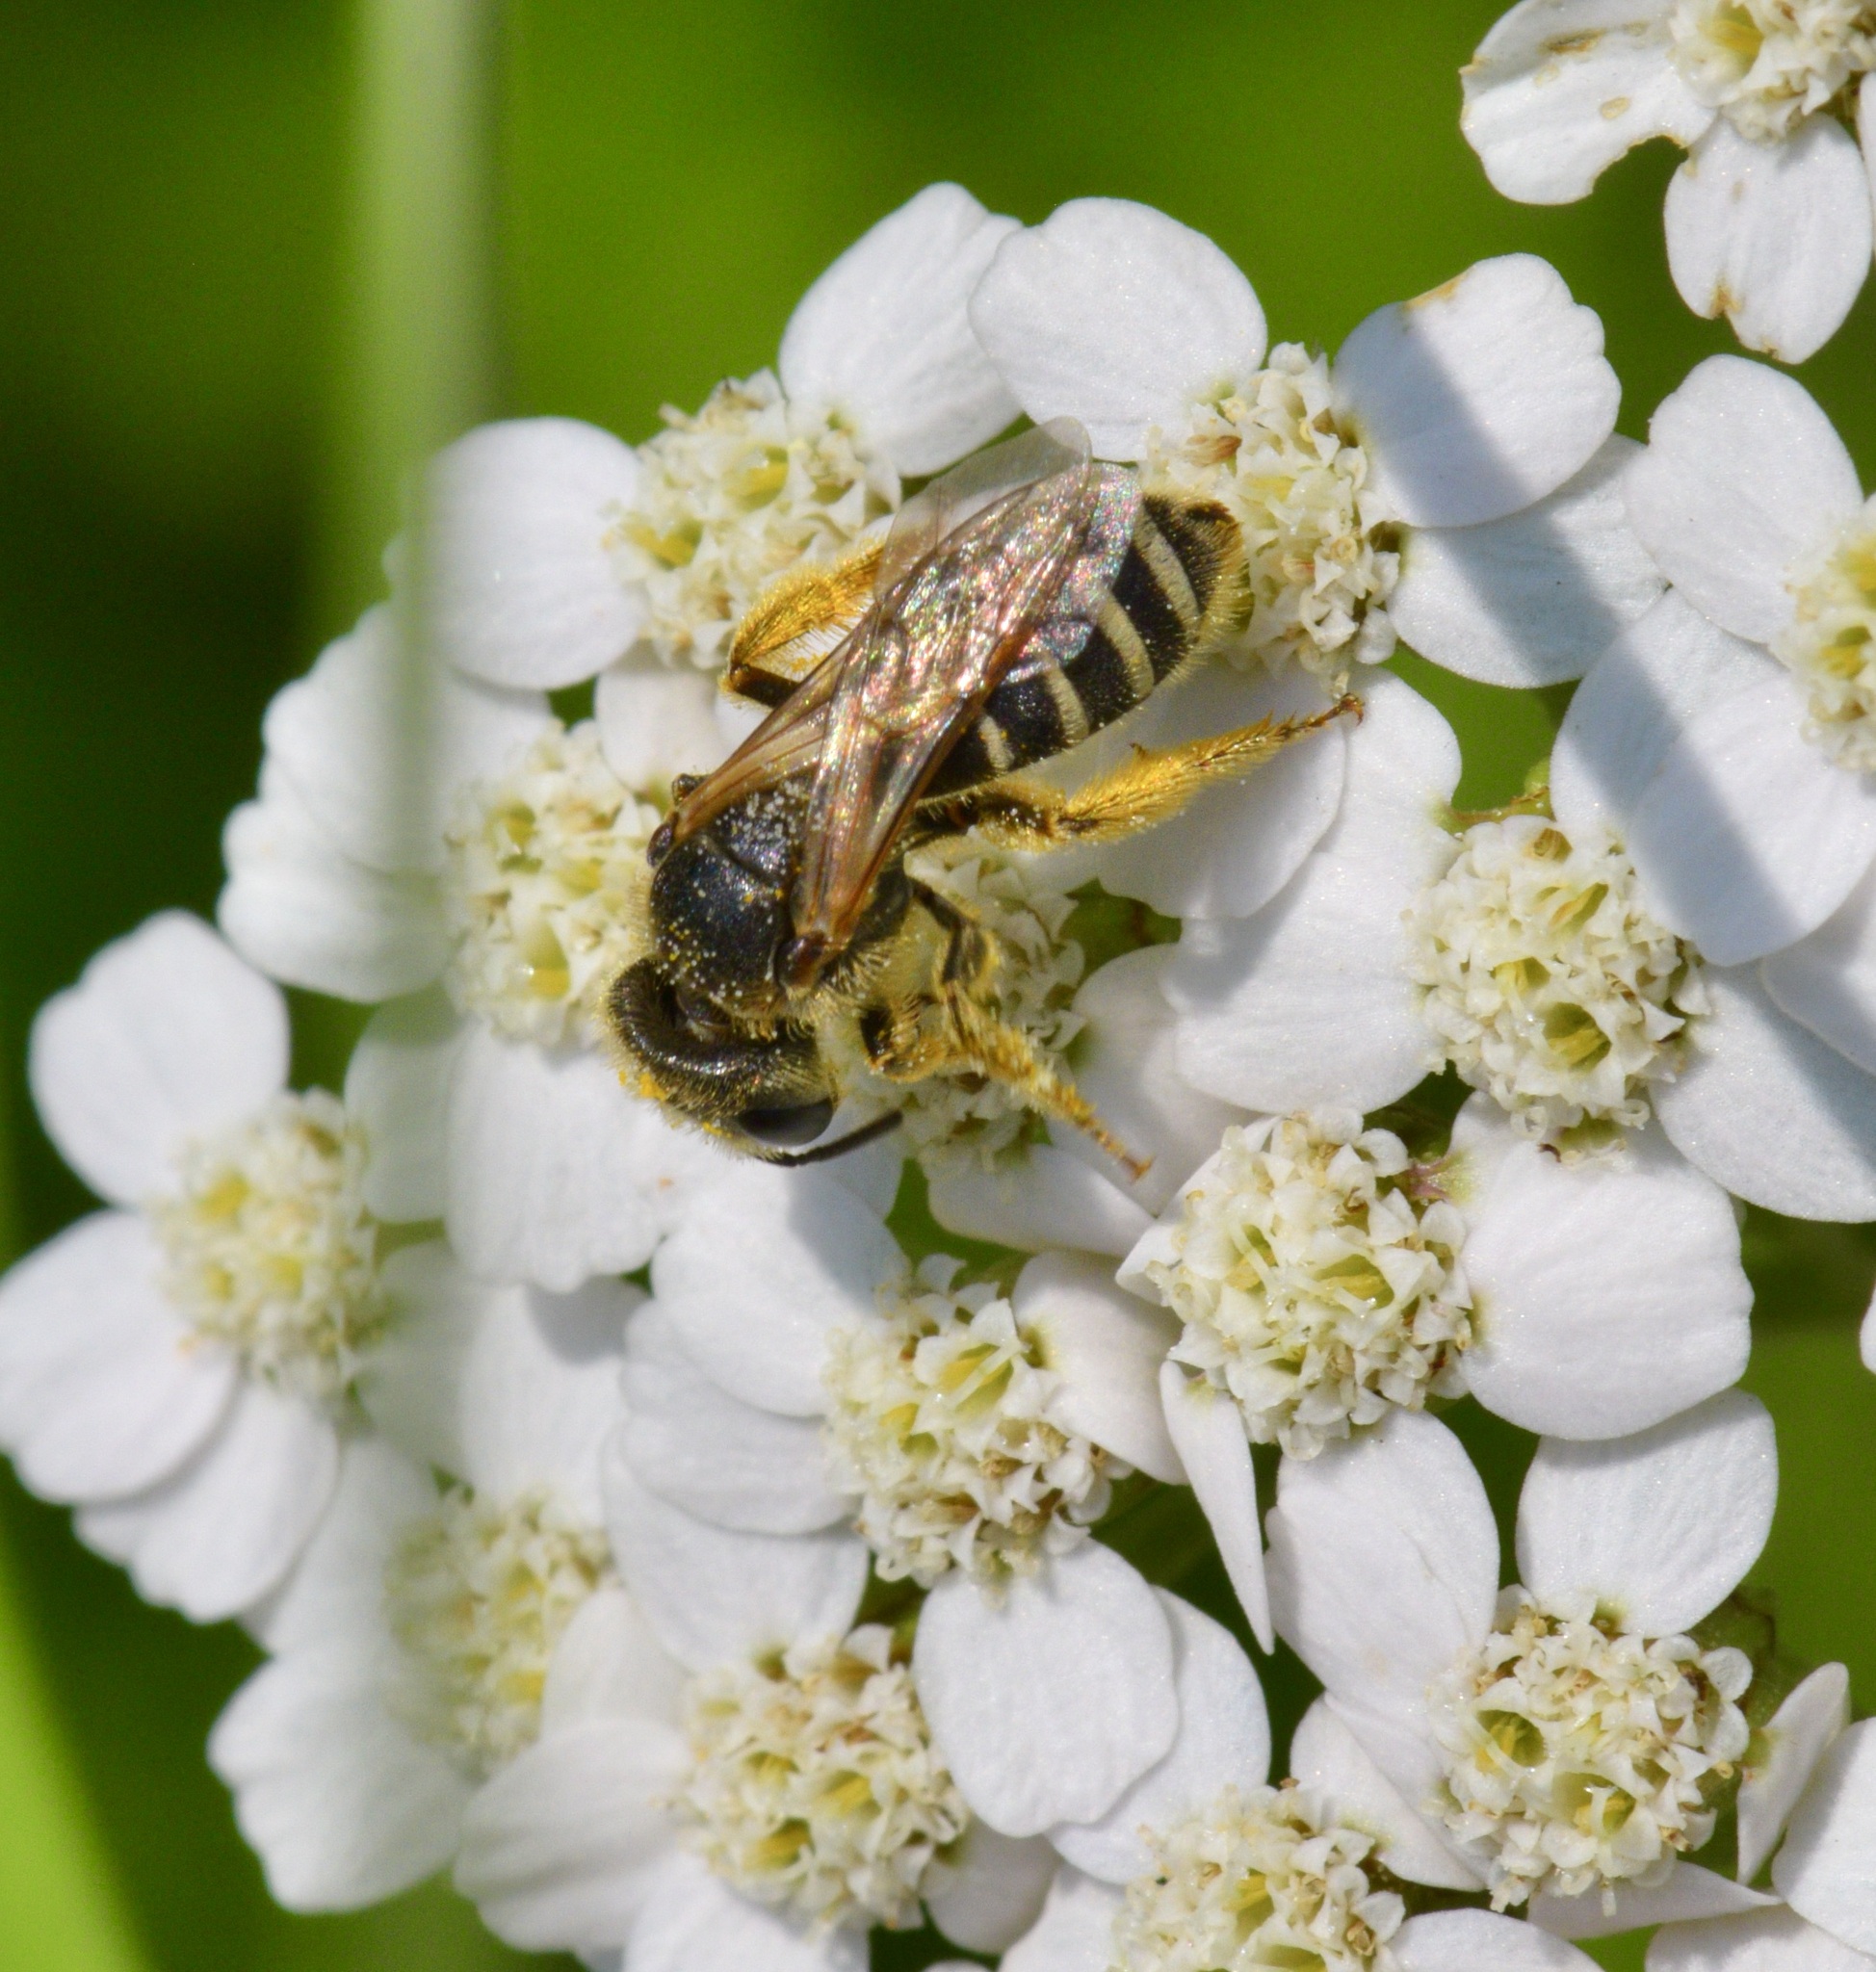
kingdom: Animalia
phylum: Arthropoda
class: Insecta
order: Hymenoptera
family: Halictidae
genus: Halictus
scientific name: Halictus ligatus
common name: Ligated furrow bee
